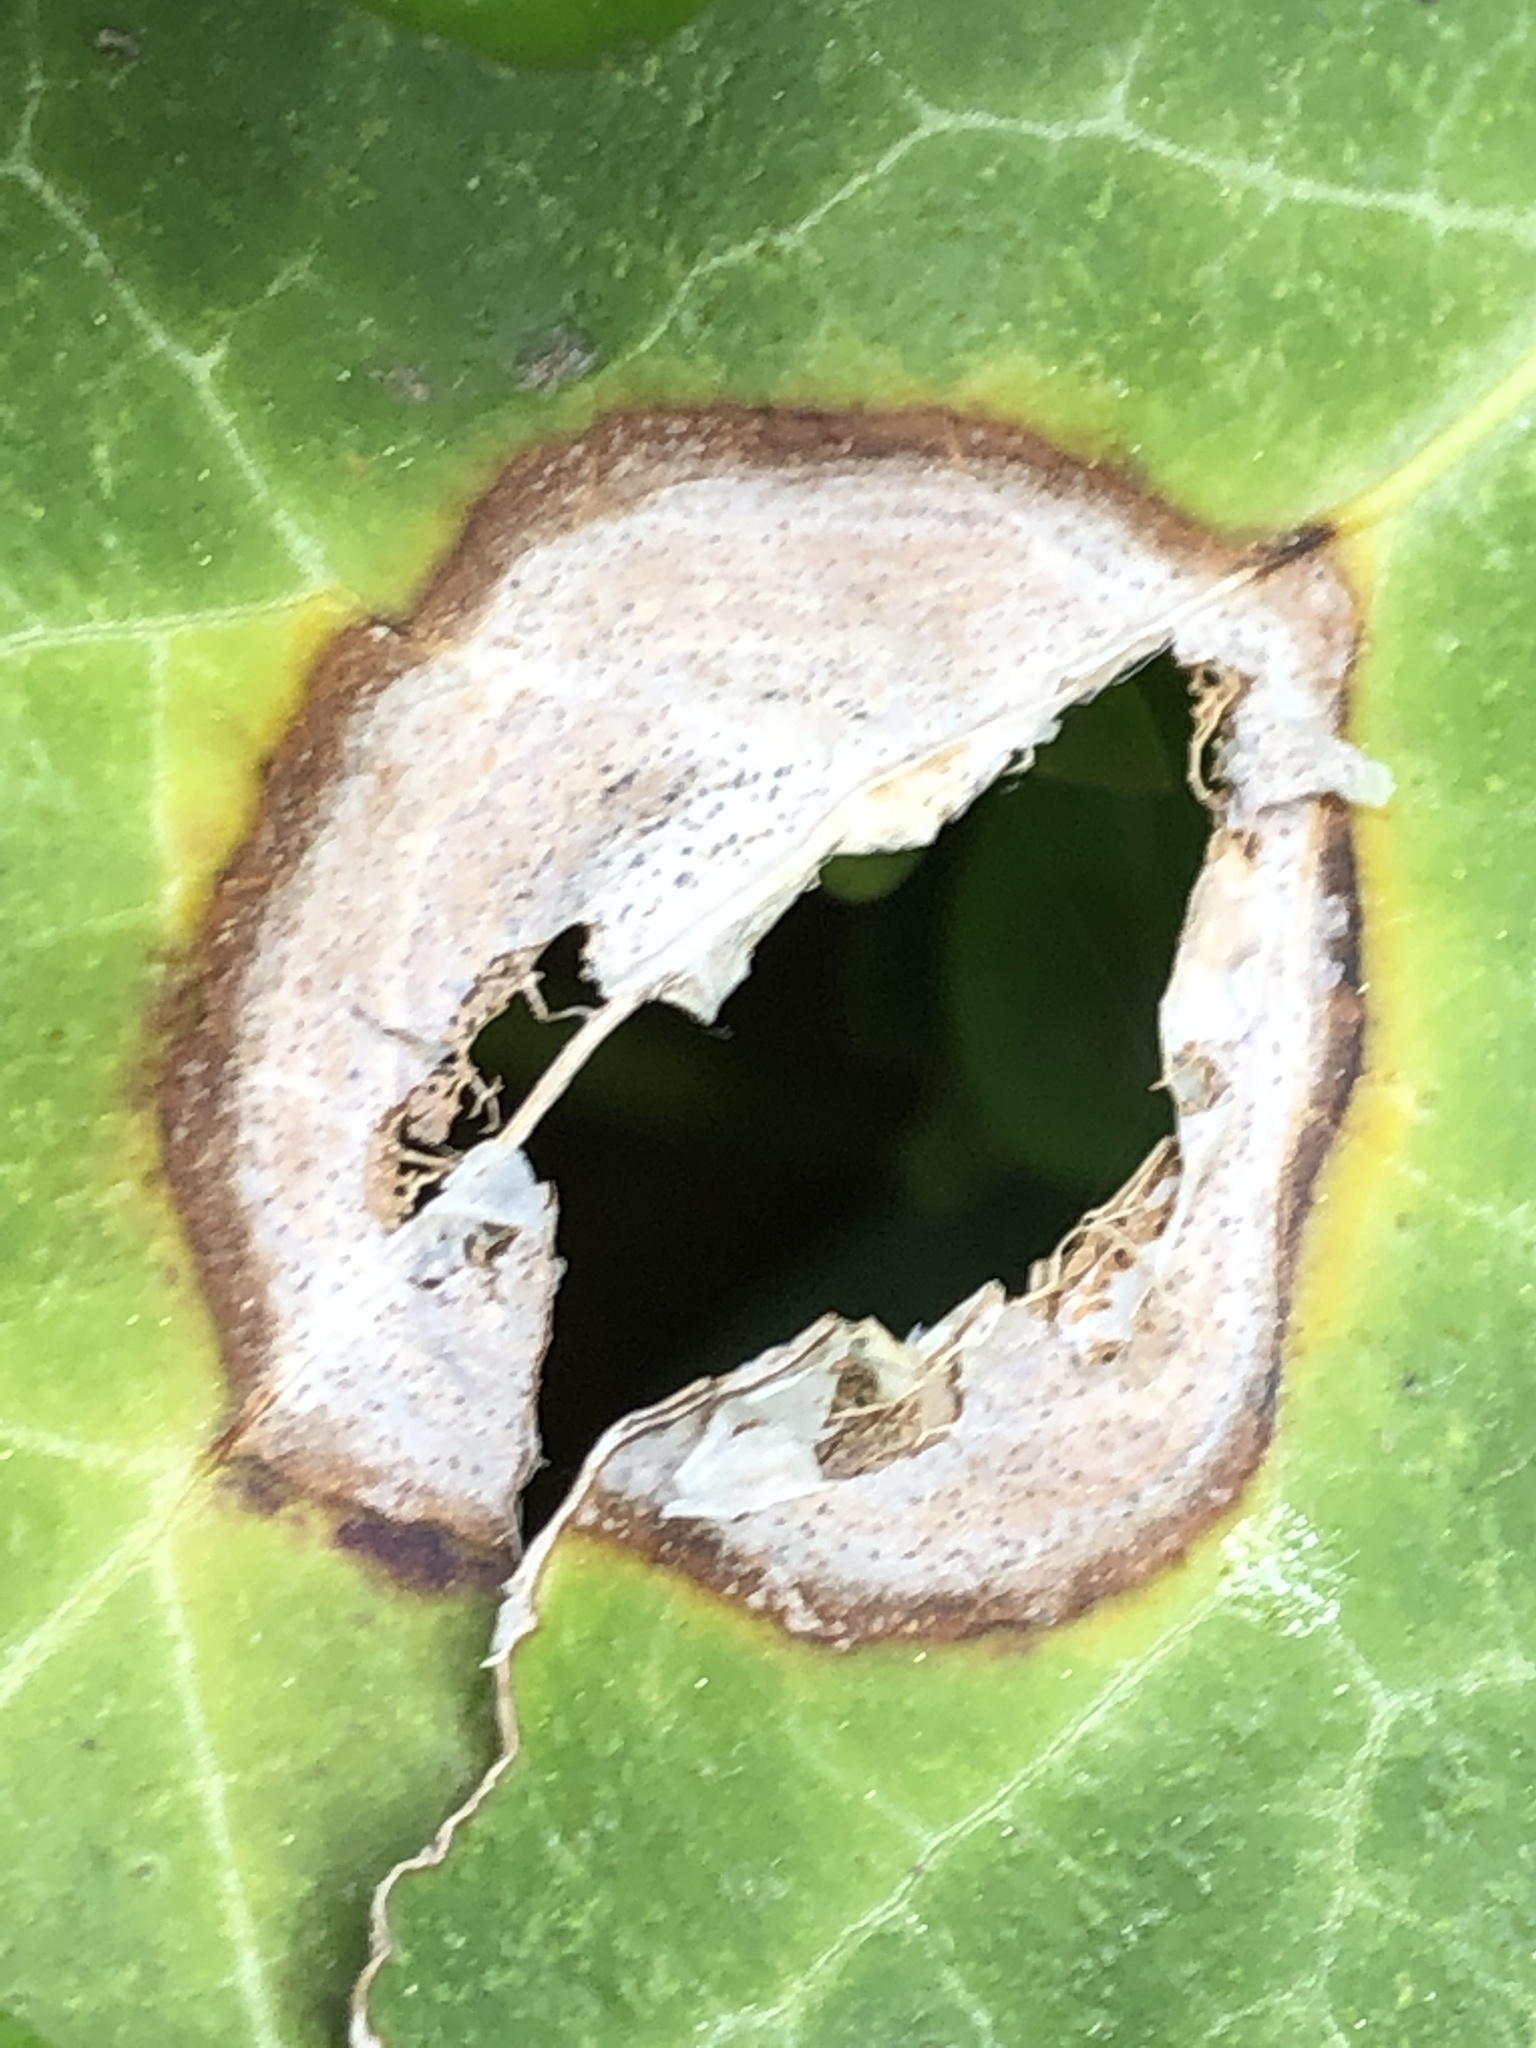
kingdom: Fungi
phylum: Ascomycota
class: Dothideomycetes
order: Pleosporales
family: Didymellaceae
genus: Boeremia
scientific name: Boeremia hedericola
